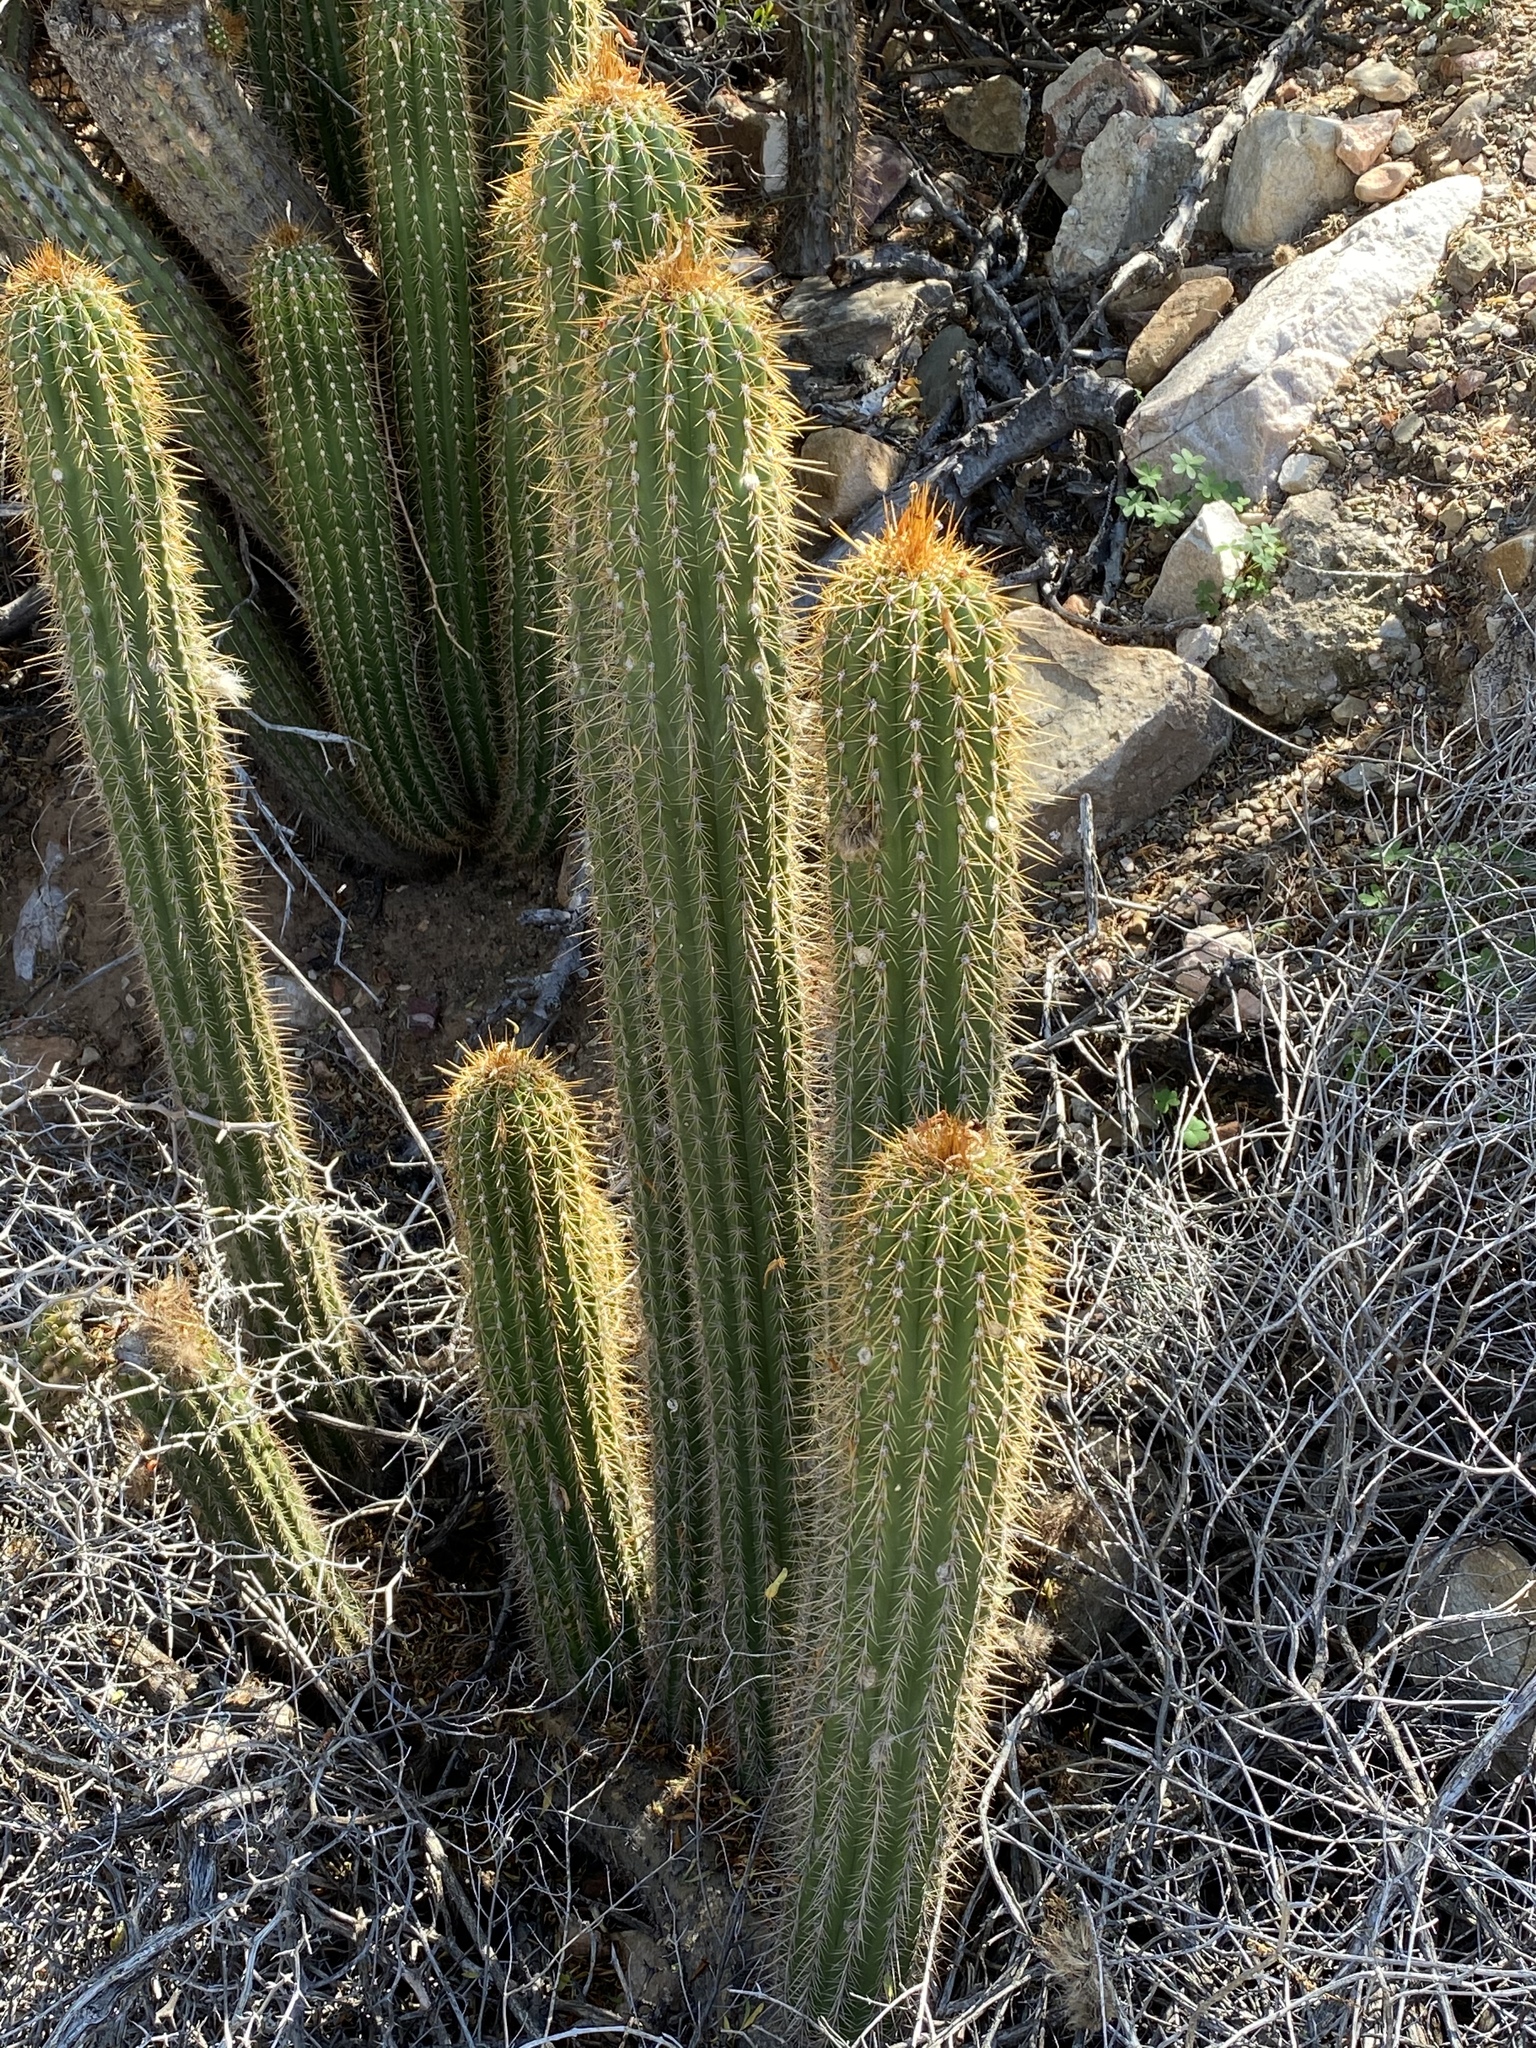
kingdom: Plantae
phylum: Tracheophyta
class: Magnoliopsida
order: Caryophyllales
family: Cactaceae
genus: Soehrensia
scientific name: Soehrensia spachiana
